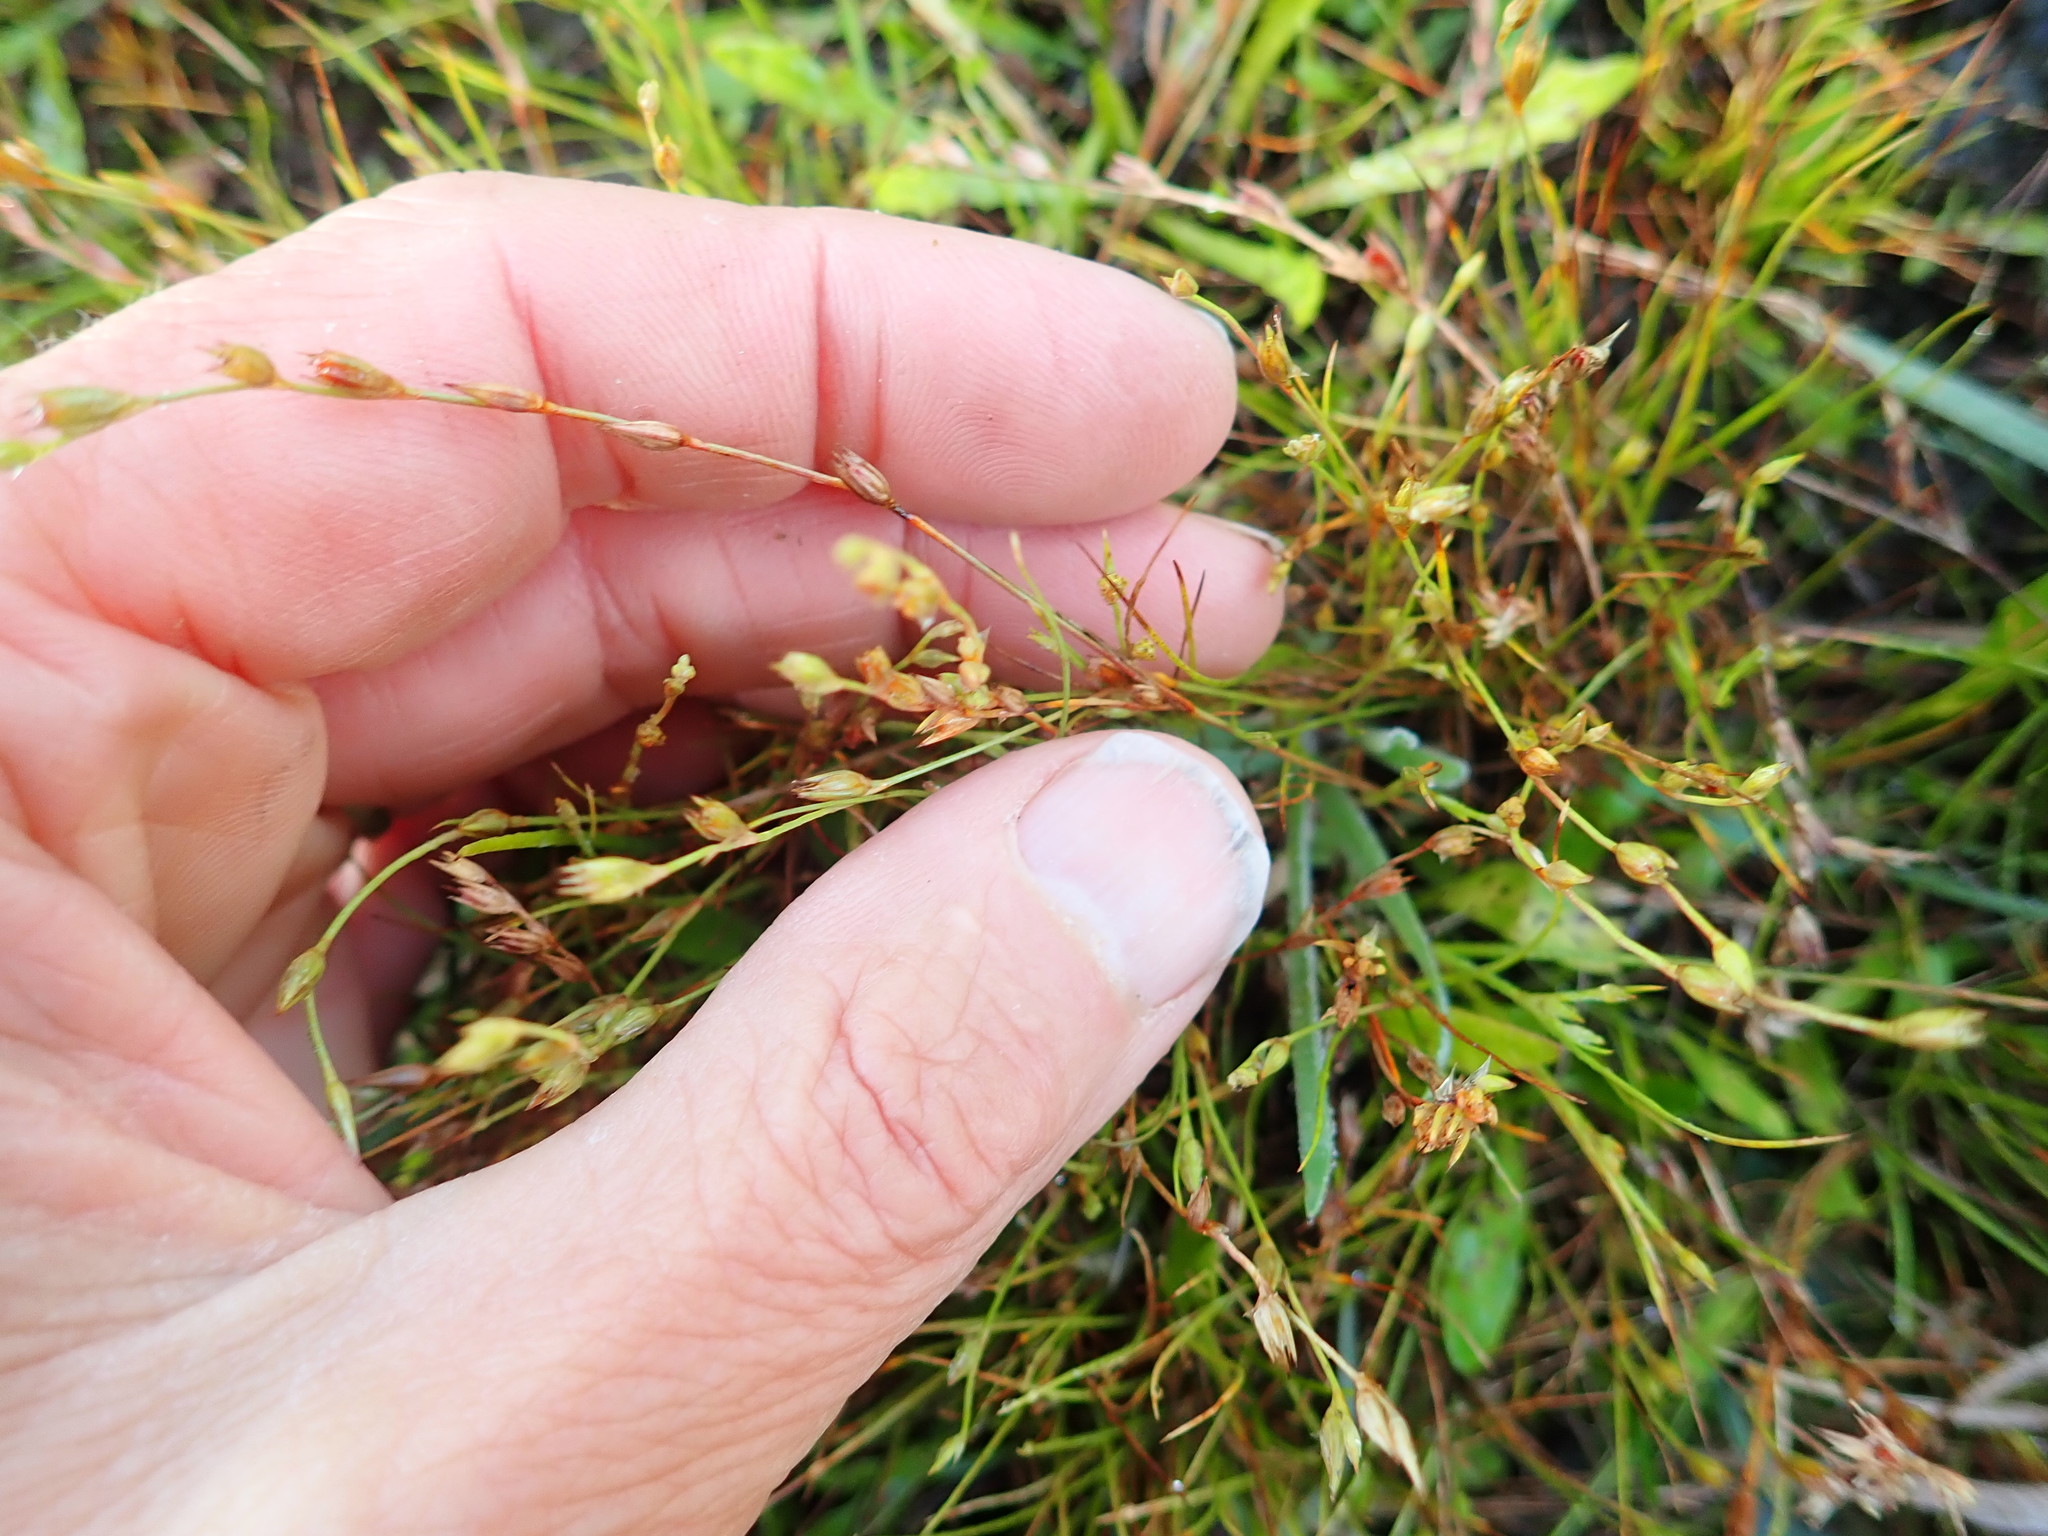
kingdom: Plantae
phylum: Tracheophyta
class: Magnoliopsida
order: Caryophyllales
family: Caryophyllaceae
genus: Silene
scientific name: Silene gallica
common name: Small-flowered catchfly
